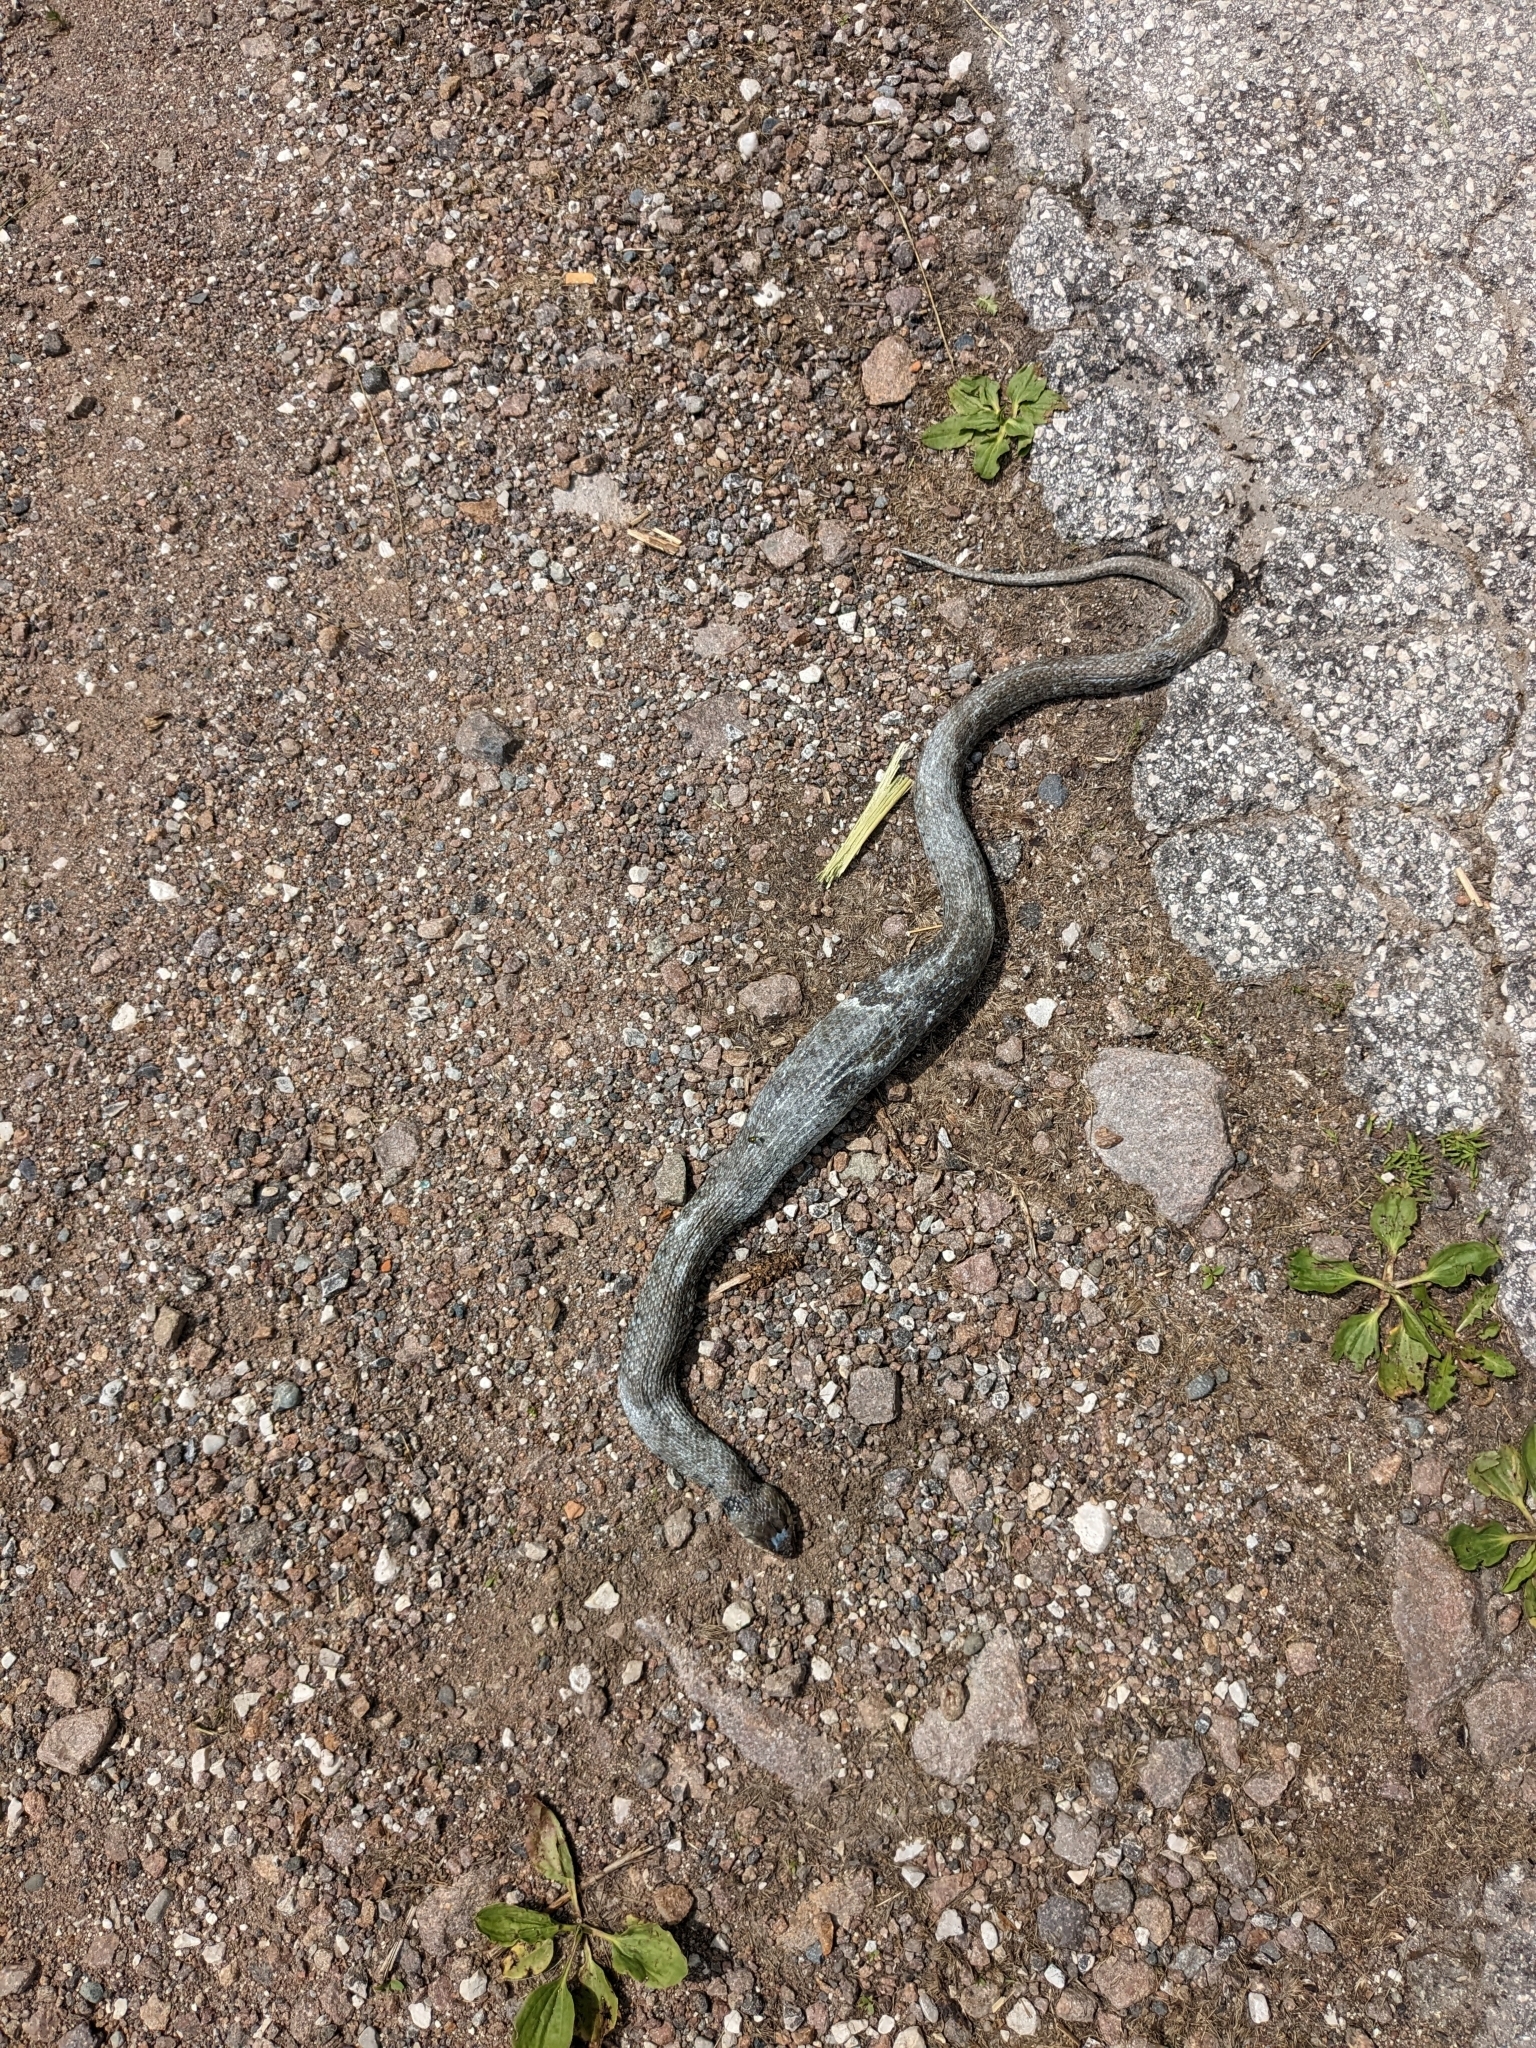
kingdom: Animalia
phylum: Chordata
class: Squamata
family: Colubridae
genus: Natrix
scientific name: Natrix helvetica
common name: Banded grass snake
